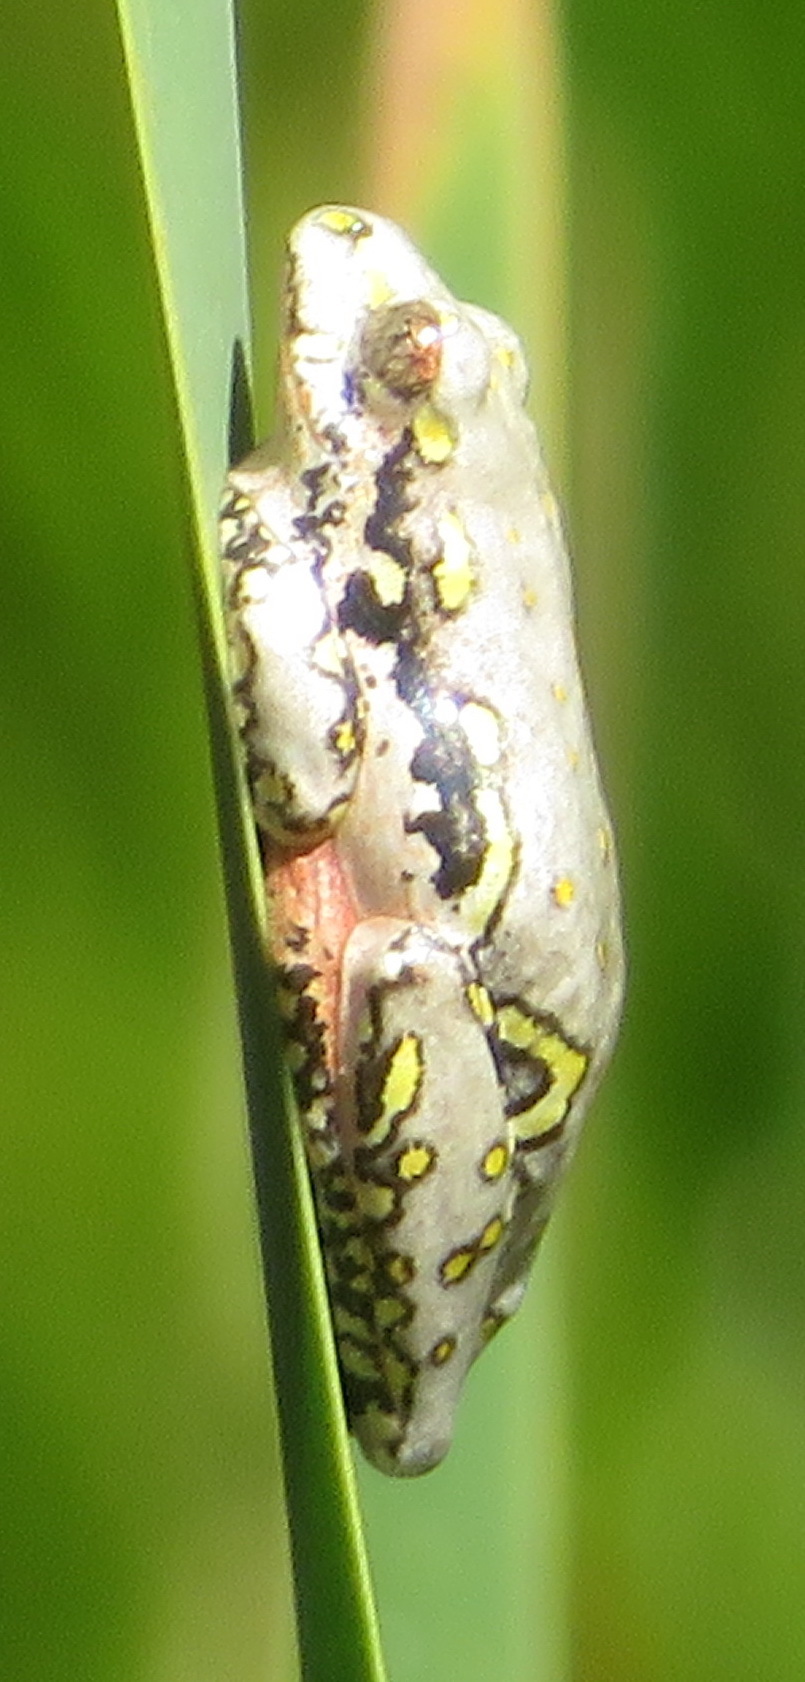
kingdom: Animalia
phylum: Chordata
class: Amphibia
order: Anura
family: Hyperoliidae
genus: Hyperolius
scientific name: Hyperolius marmoratus
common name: Painted reed frog
